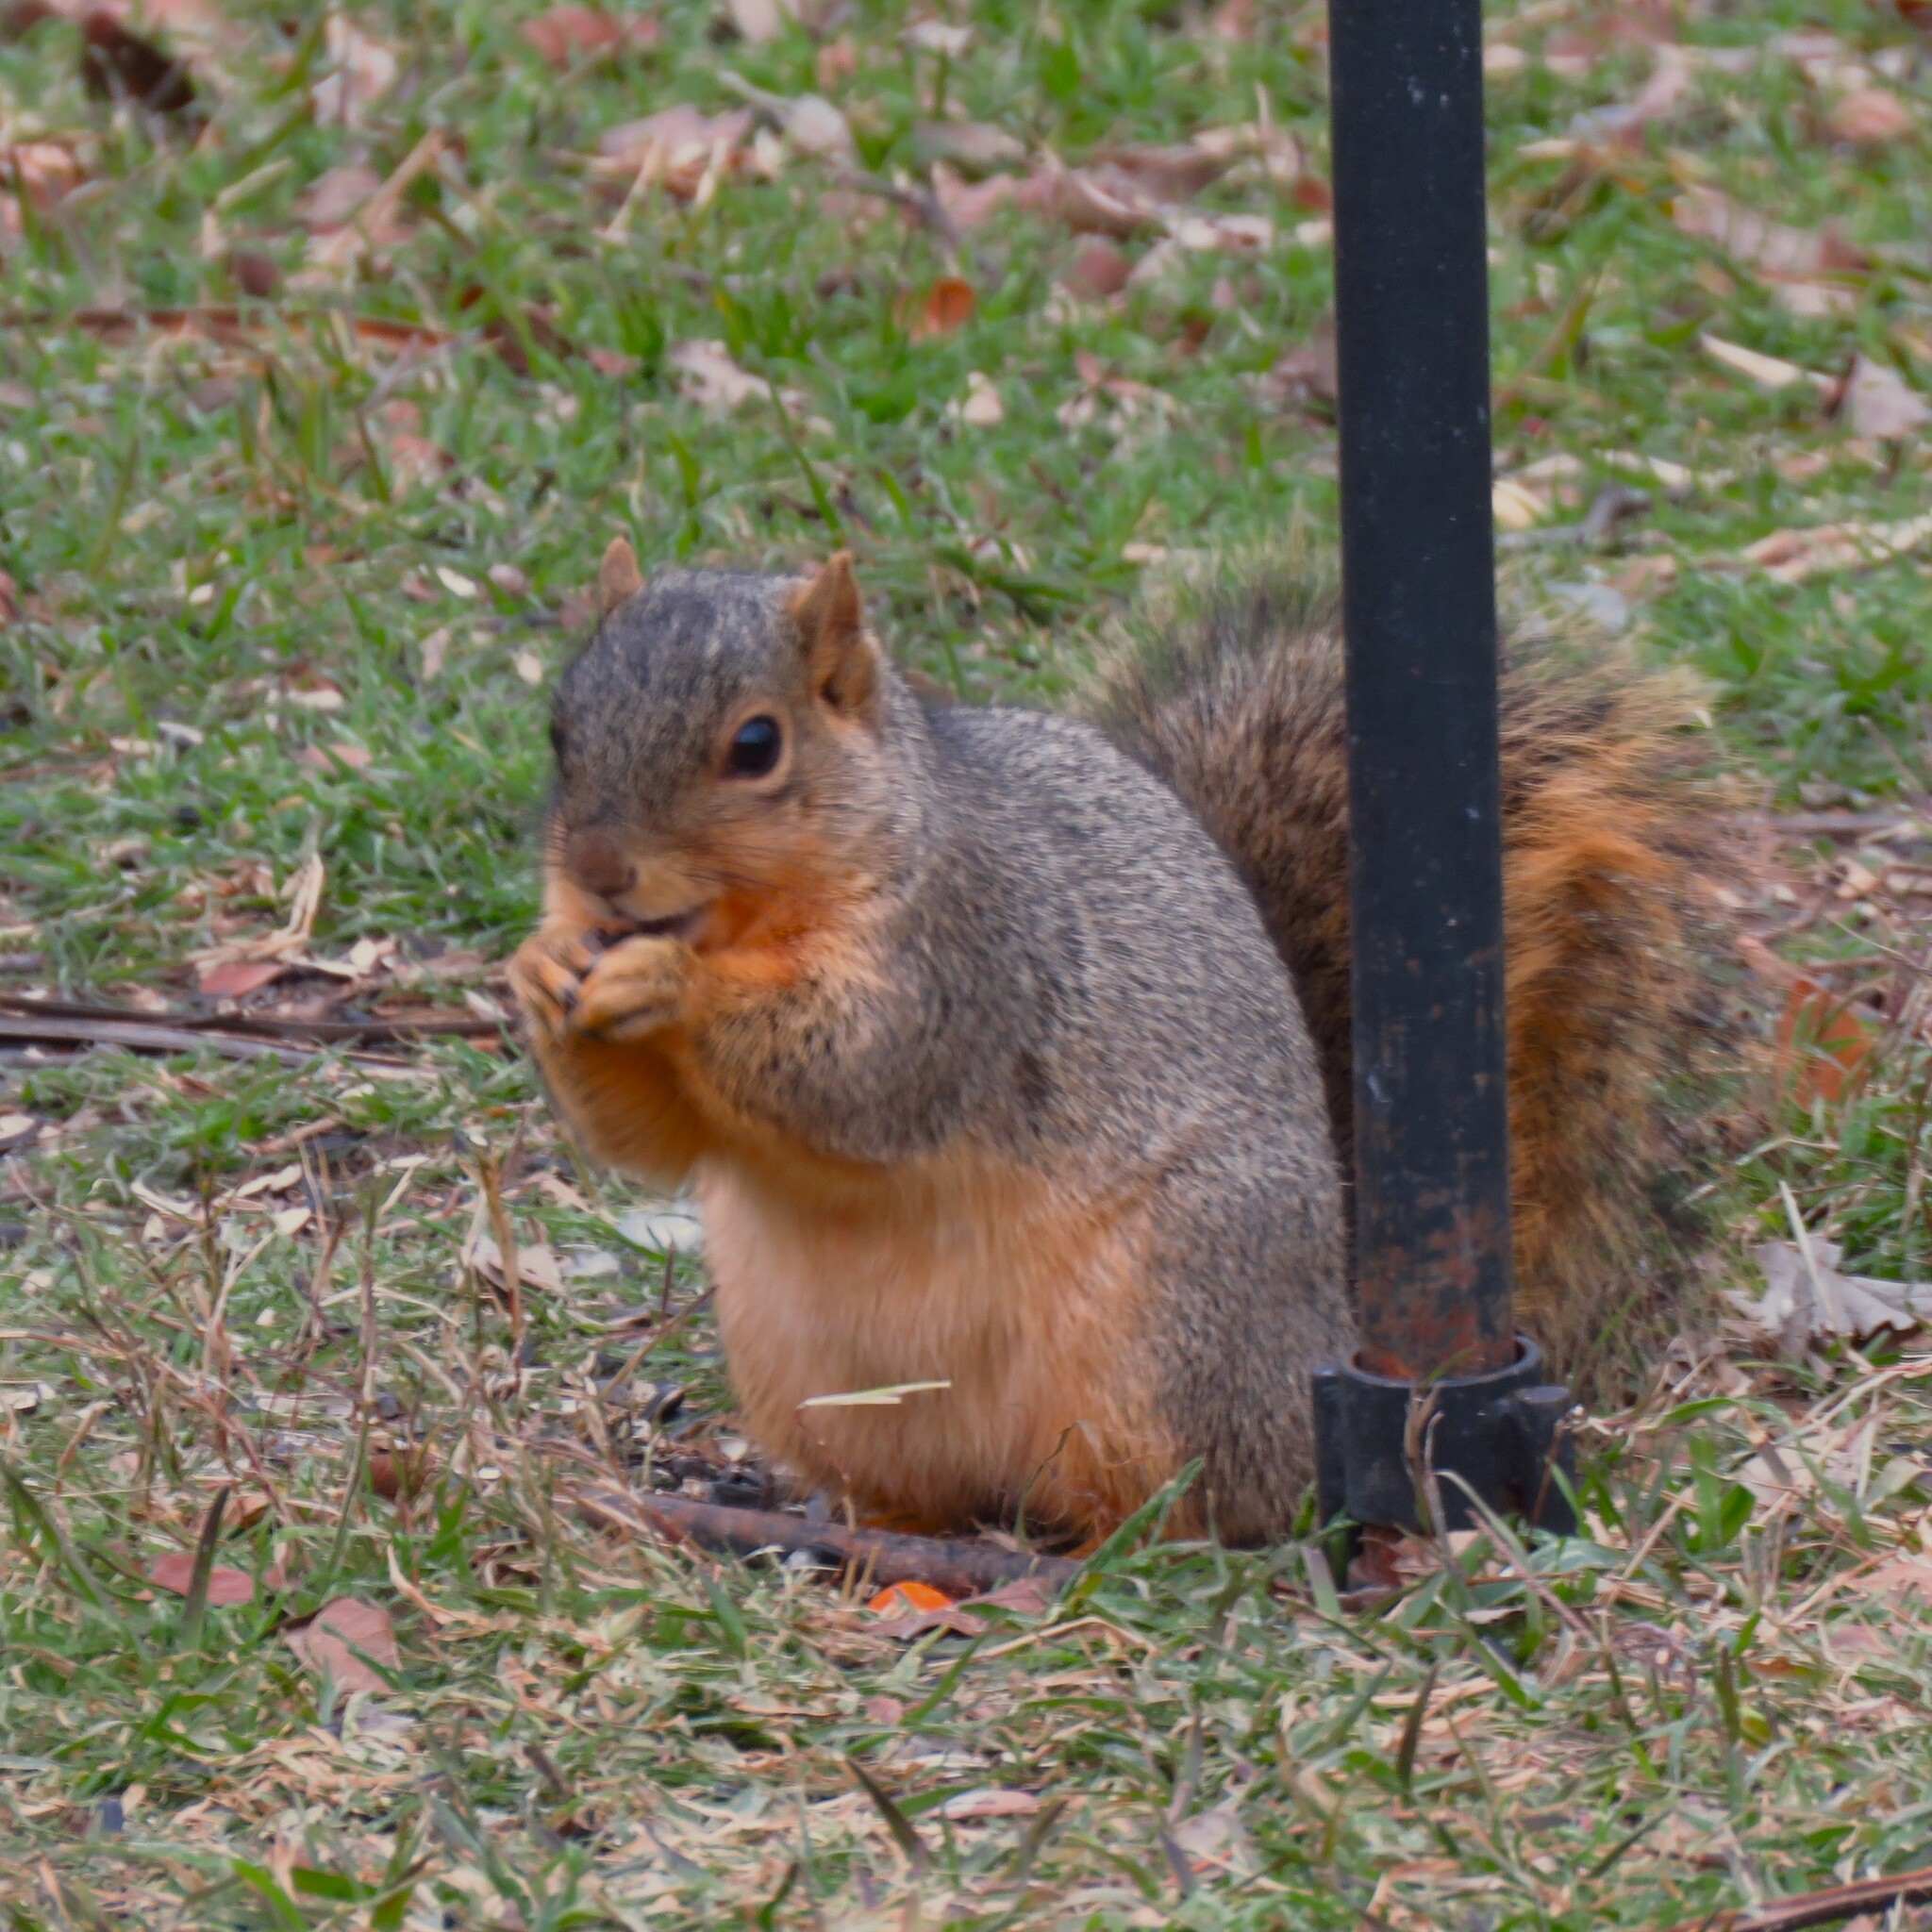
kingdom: Animalia
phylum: Chordata
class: Mammalia
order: Rodentia
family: Sciuridae
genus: Sciurus
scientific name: Sciurus niger
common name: Fox squirrel
